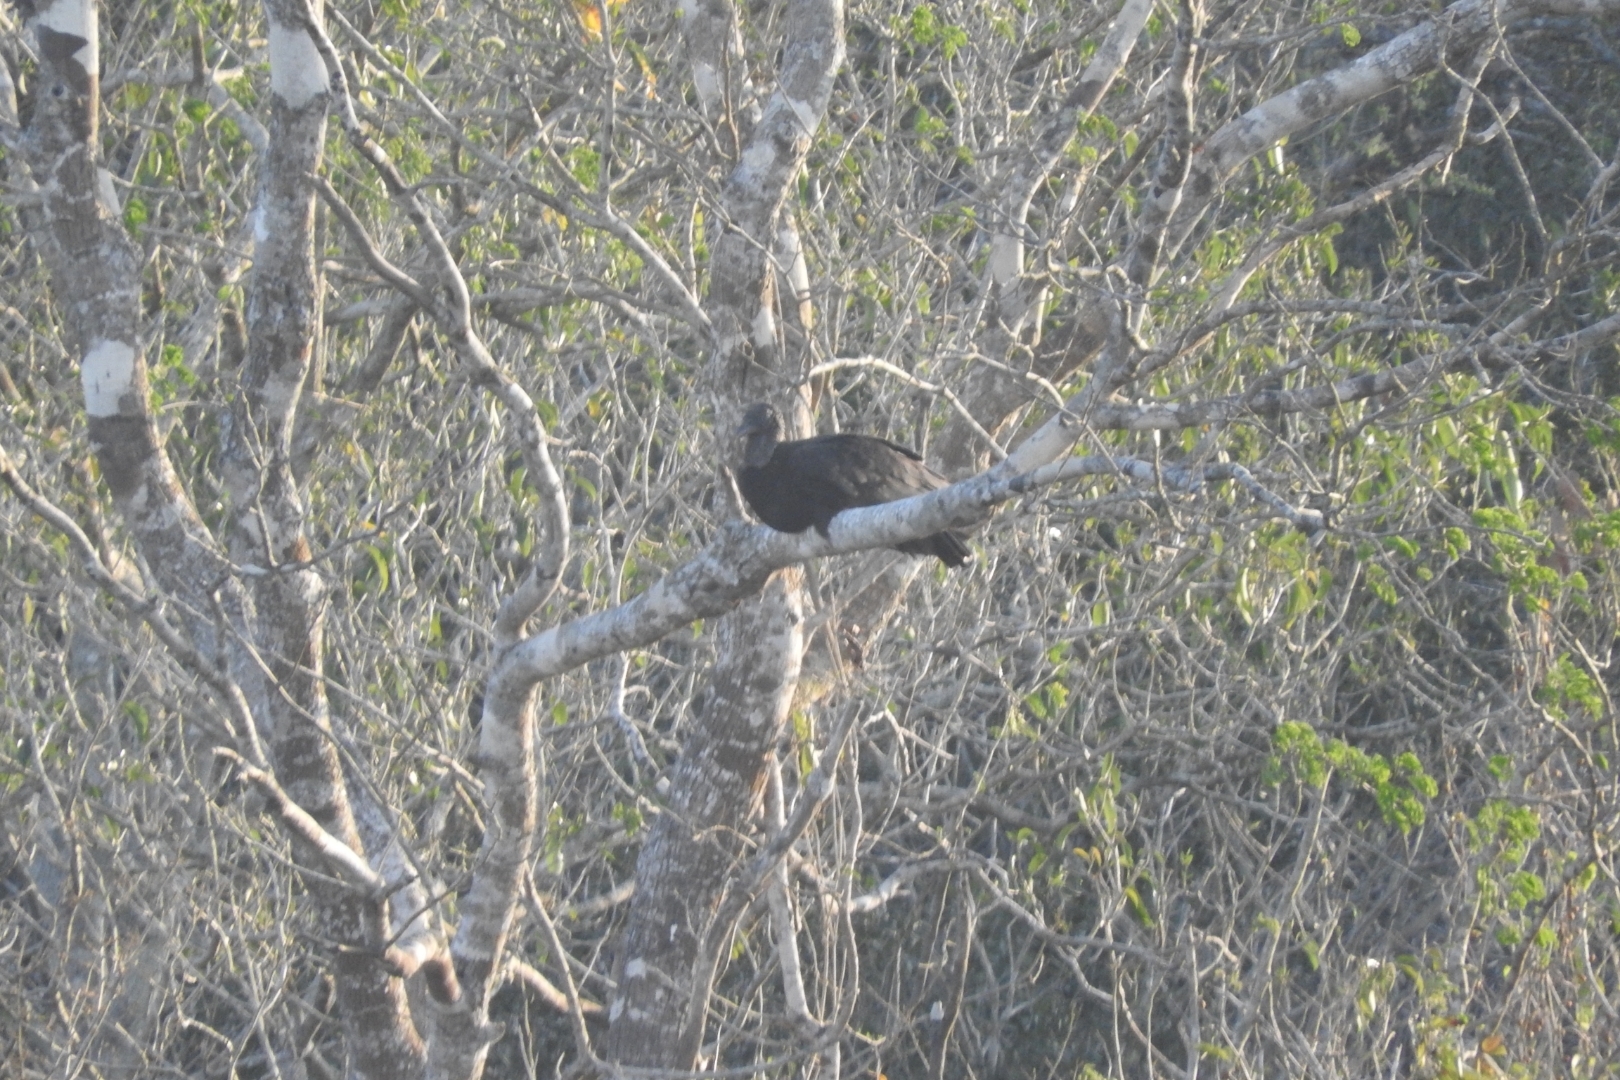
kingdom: Animalia
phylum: Chordata
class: Aves
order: Accipitriformes
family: Cathartidae
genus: Coragyps
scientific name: Coragyps atratus
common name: Black vulture
